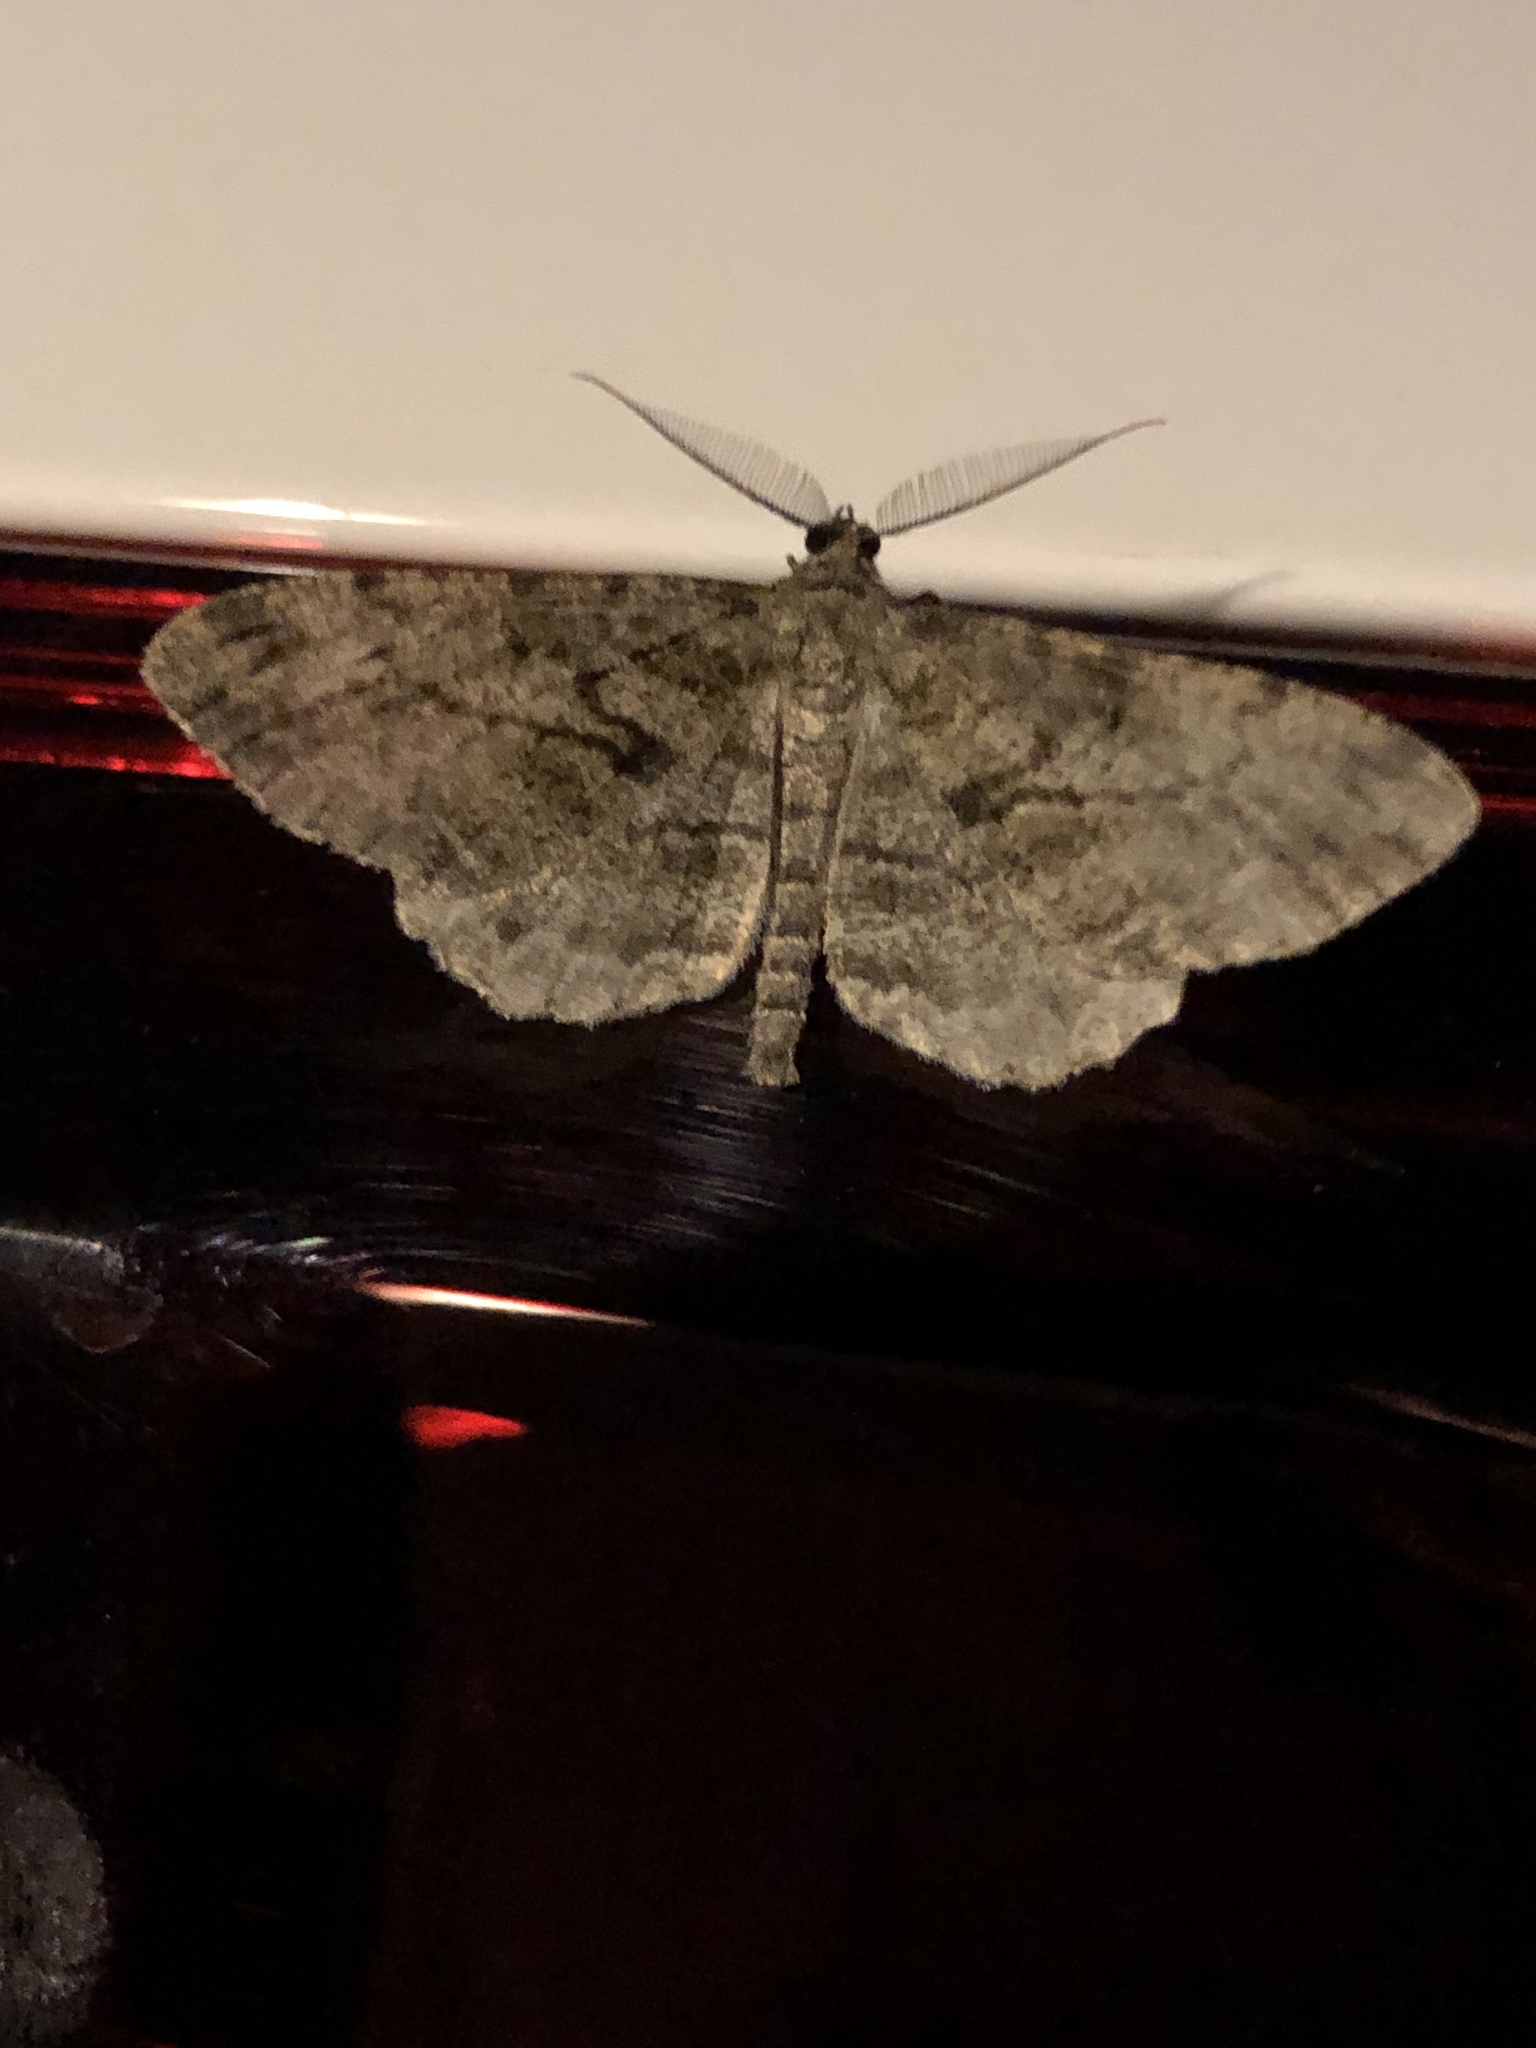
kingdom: Animalia
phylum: Arthropoda
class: Insecta
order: Lepidoptera
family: Geometridae
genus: Peribatodes
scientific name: Peribatodes rhomboidaria
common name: Willow beauty
